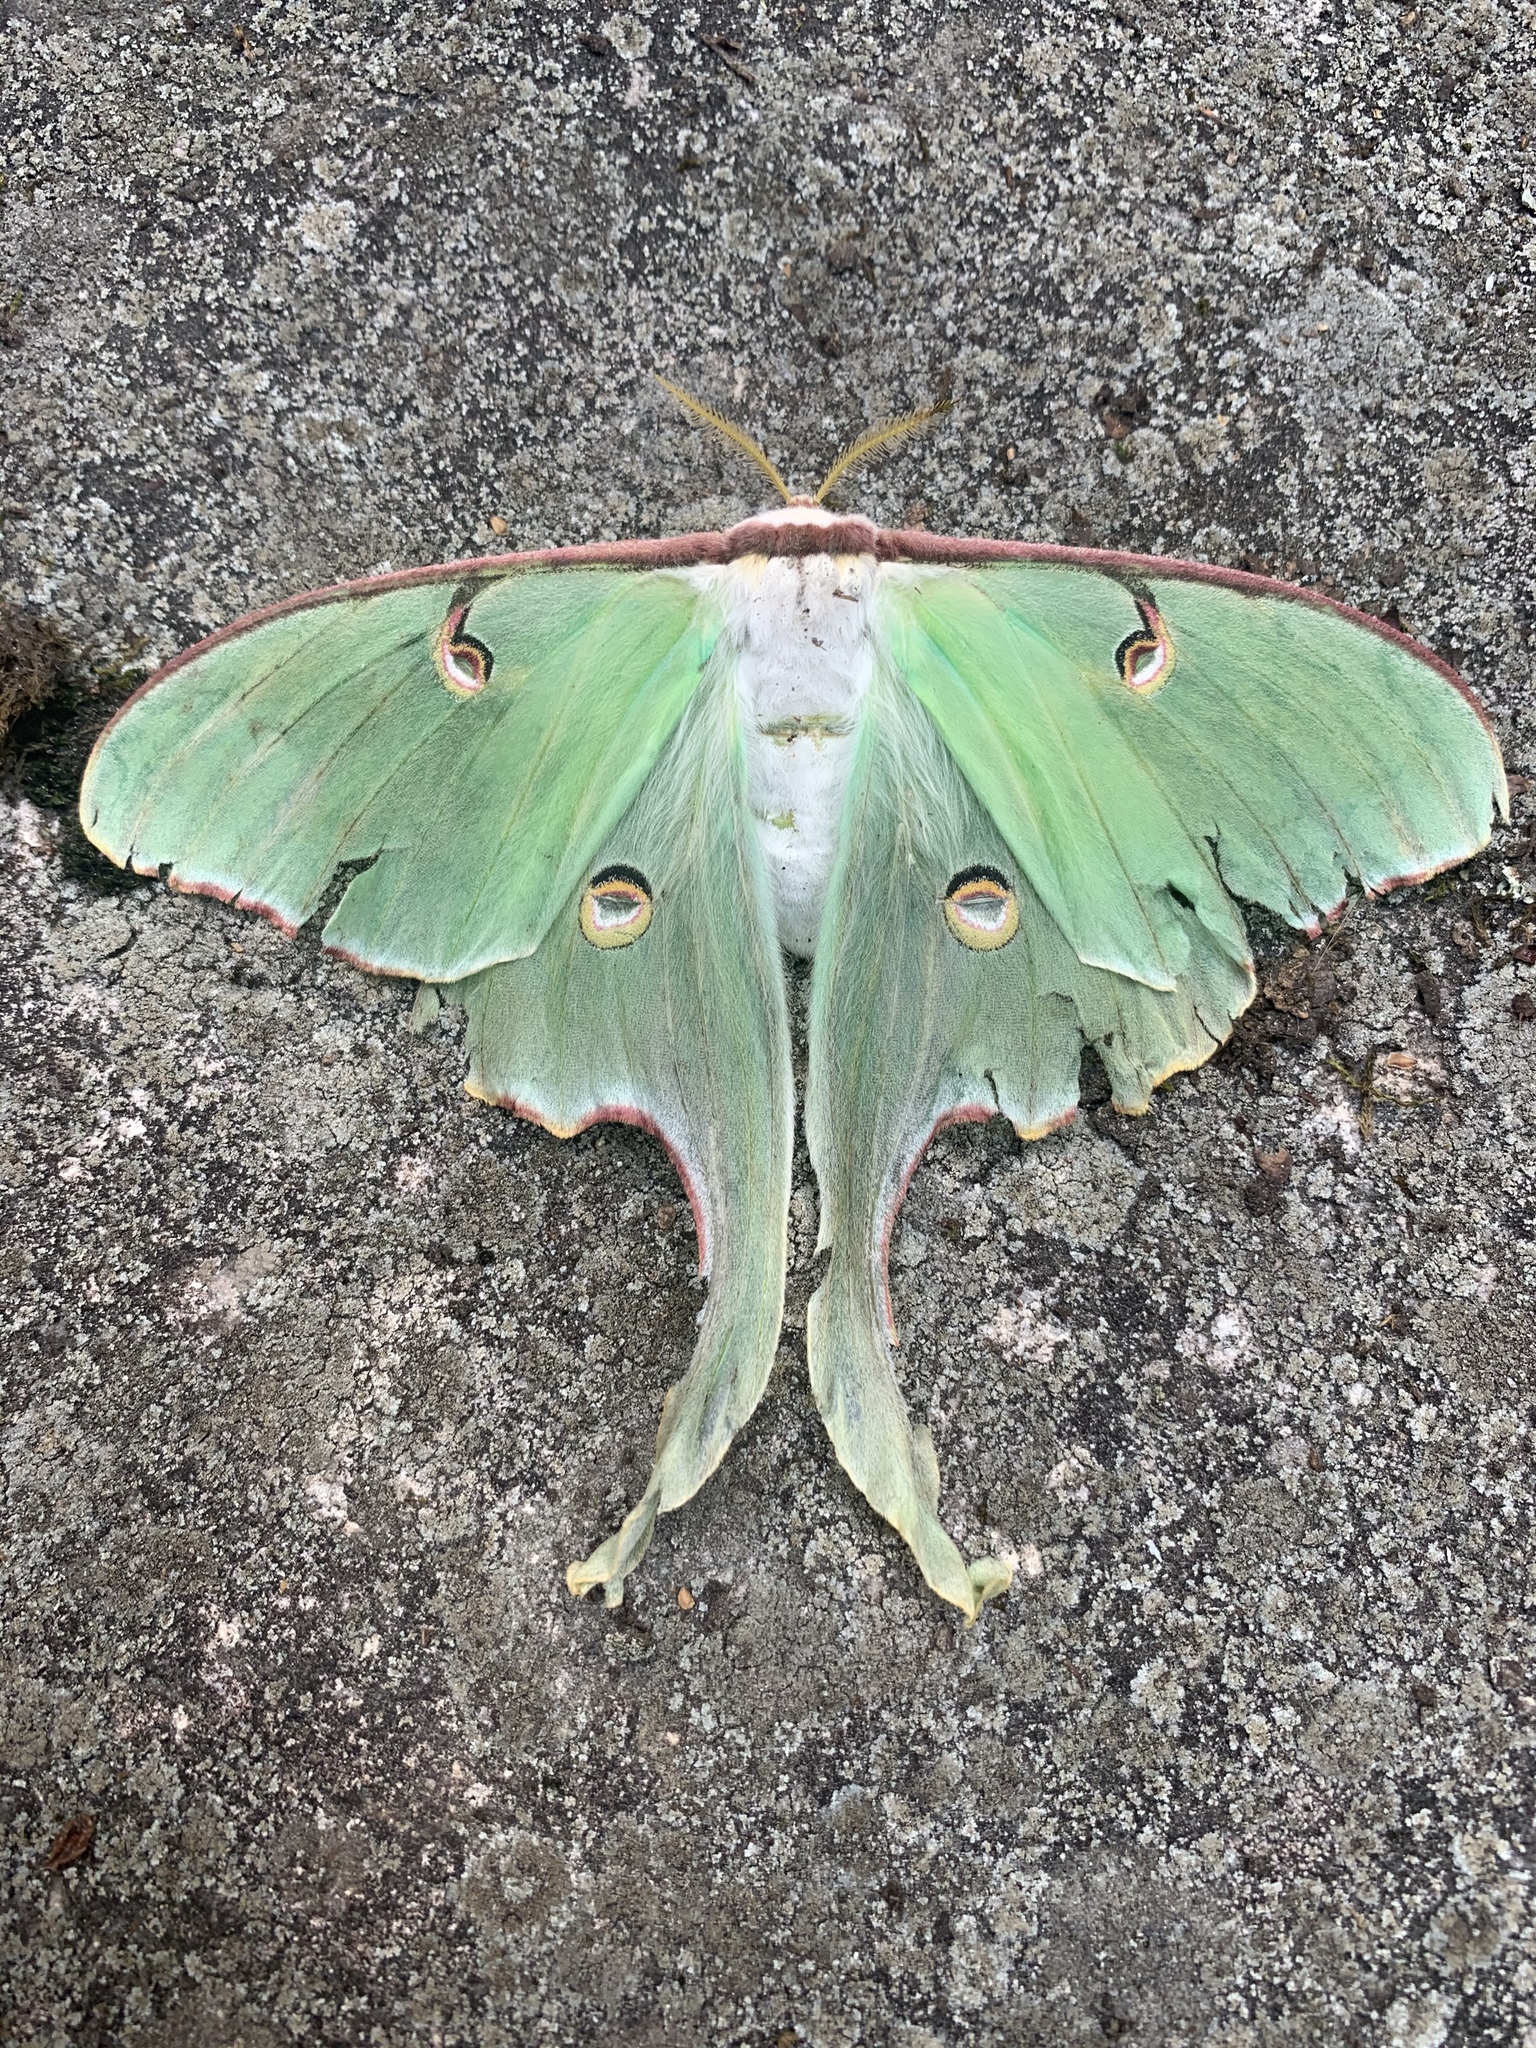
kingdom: Animalia
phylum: Arthropoda
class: Insecta
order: Lepidoptera
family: Saturniidae
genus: Actias
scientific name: Actias luna
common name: Luna moth
